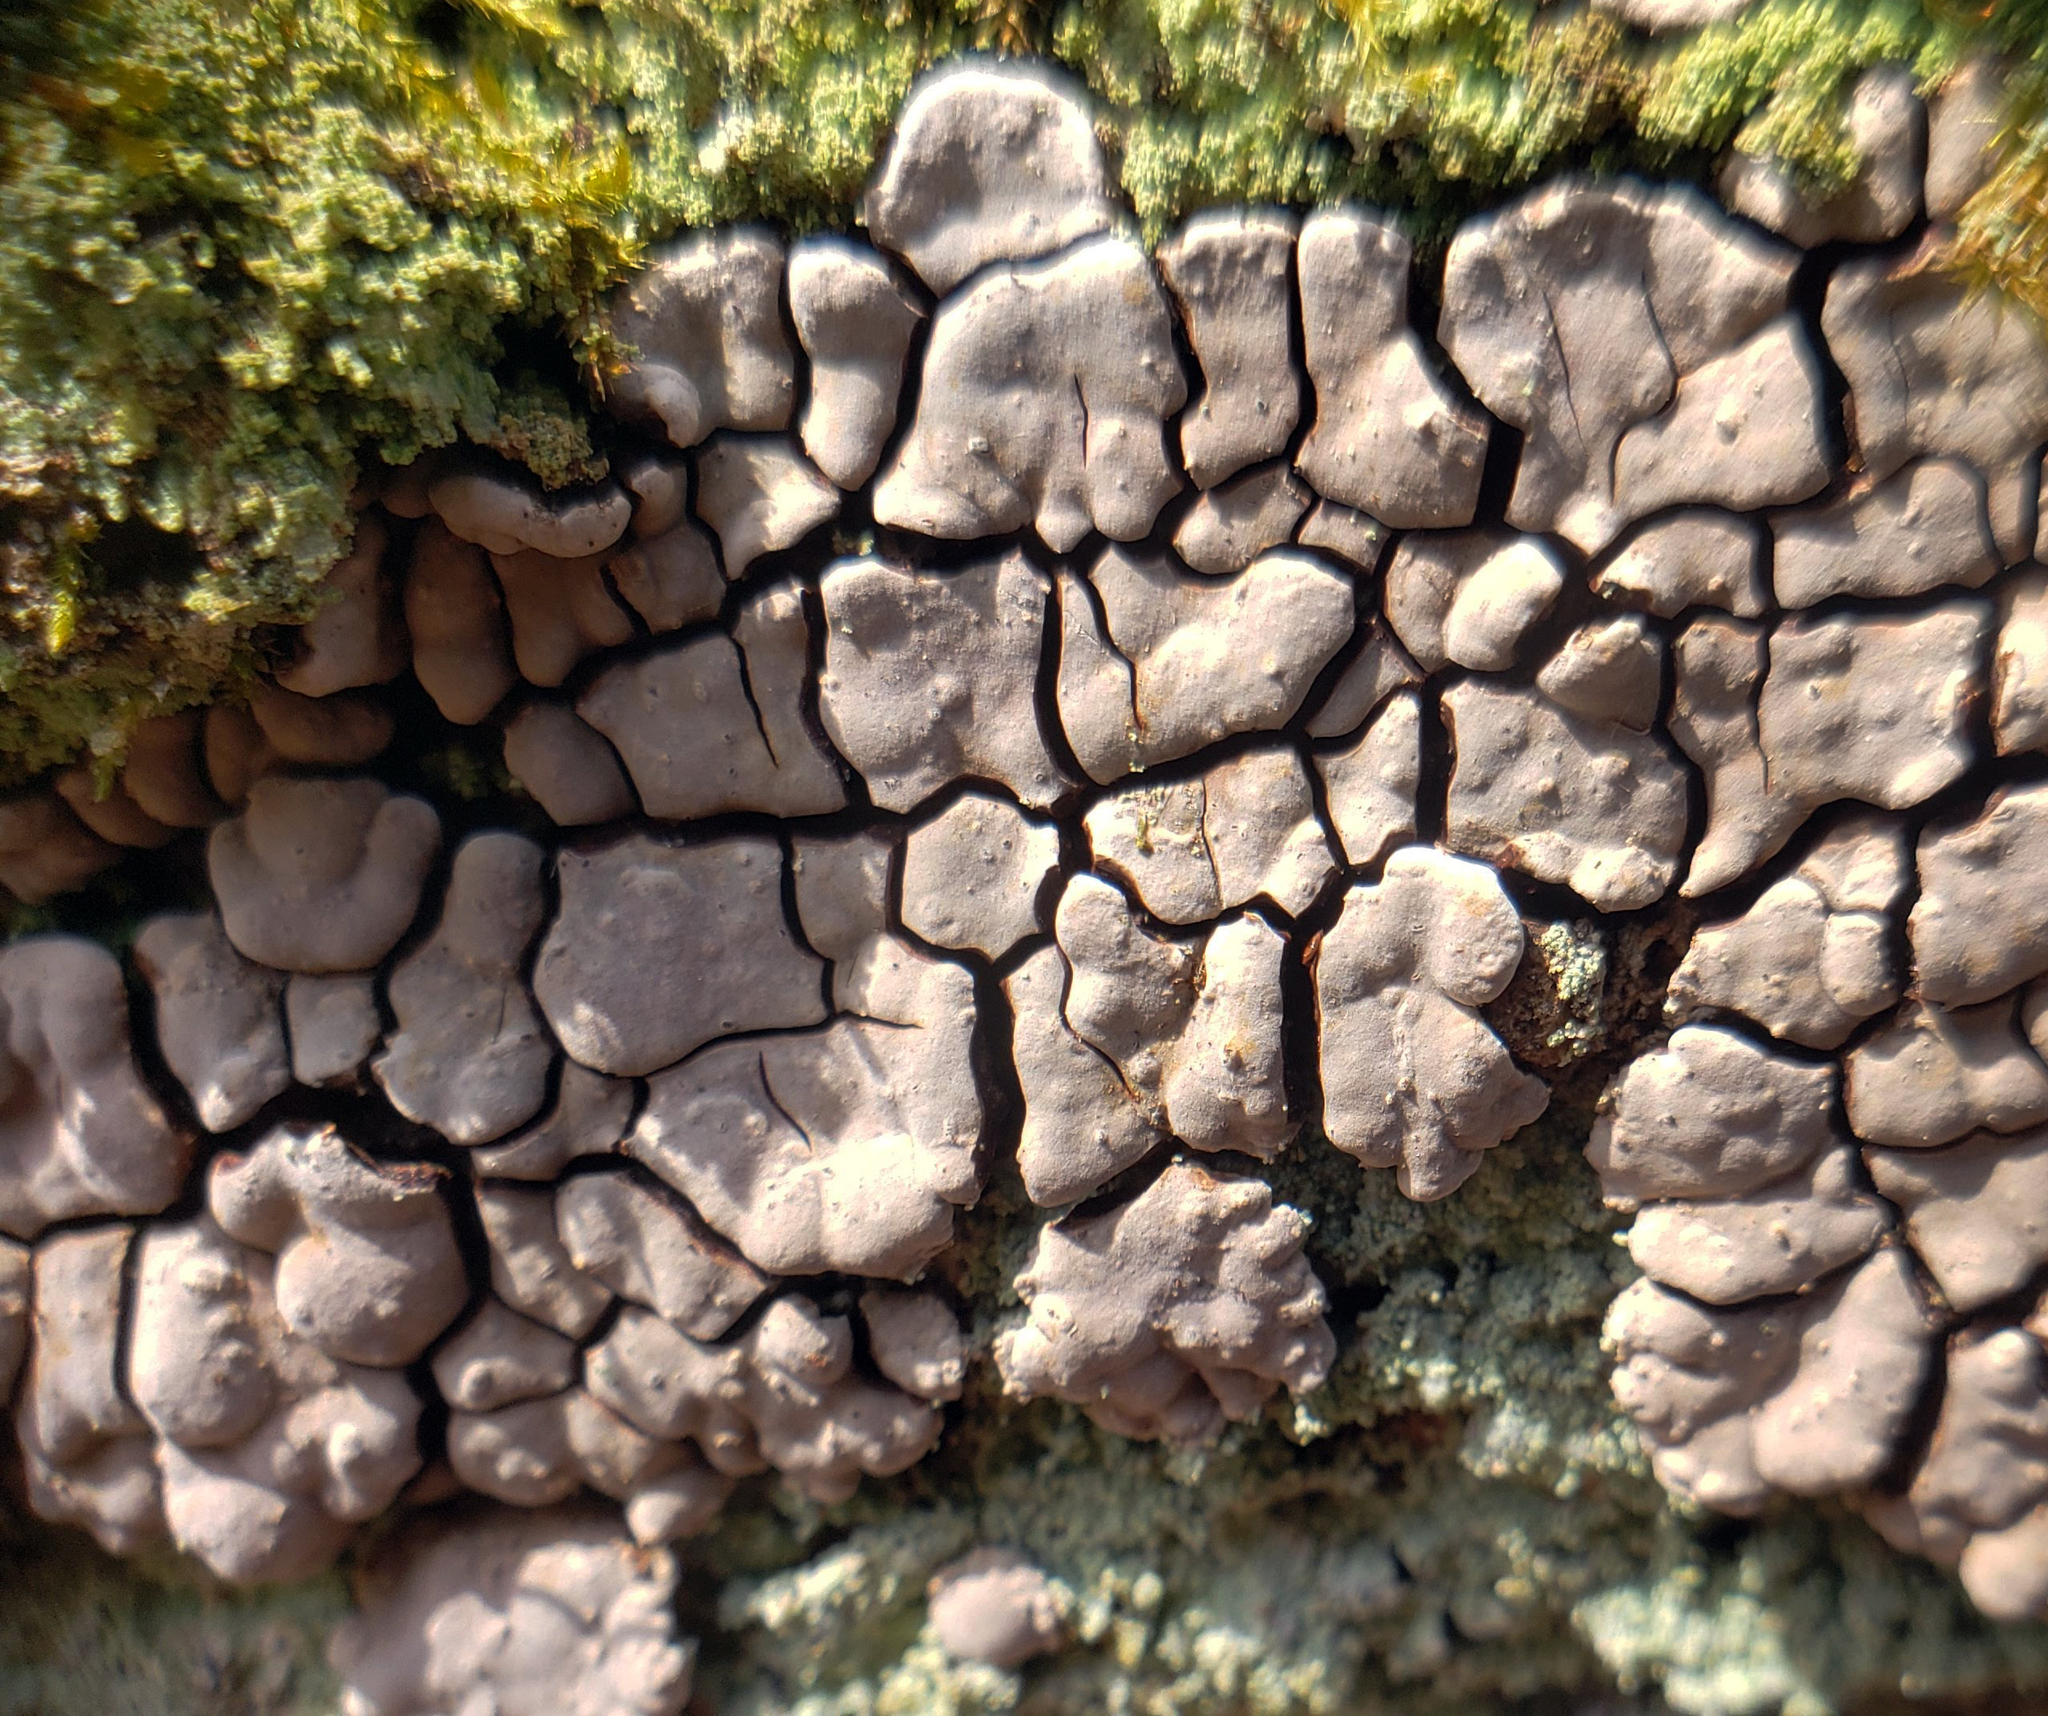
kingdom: Fungi
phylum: Basidiomycota
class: Agaricomycetes
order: Russulales
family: Stereaceae
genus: Xylobolus
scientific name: Xylobolus frustulatus
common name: Ceramic parchment
